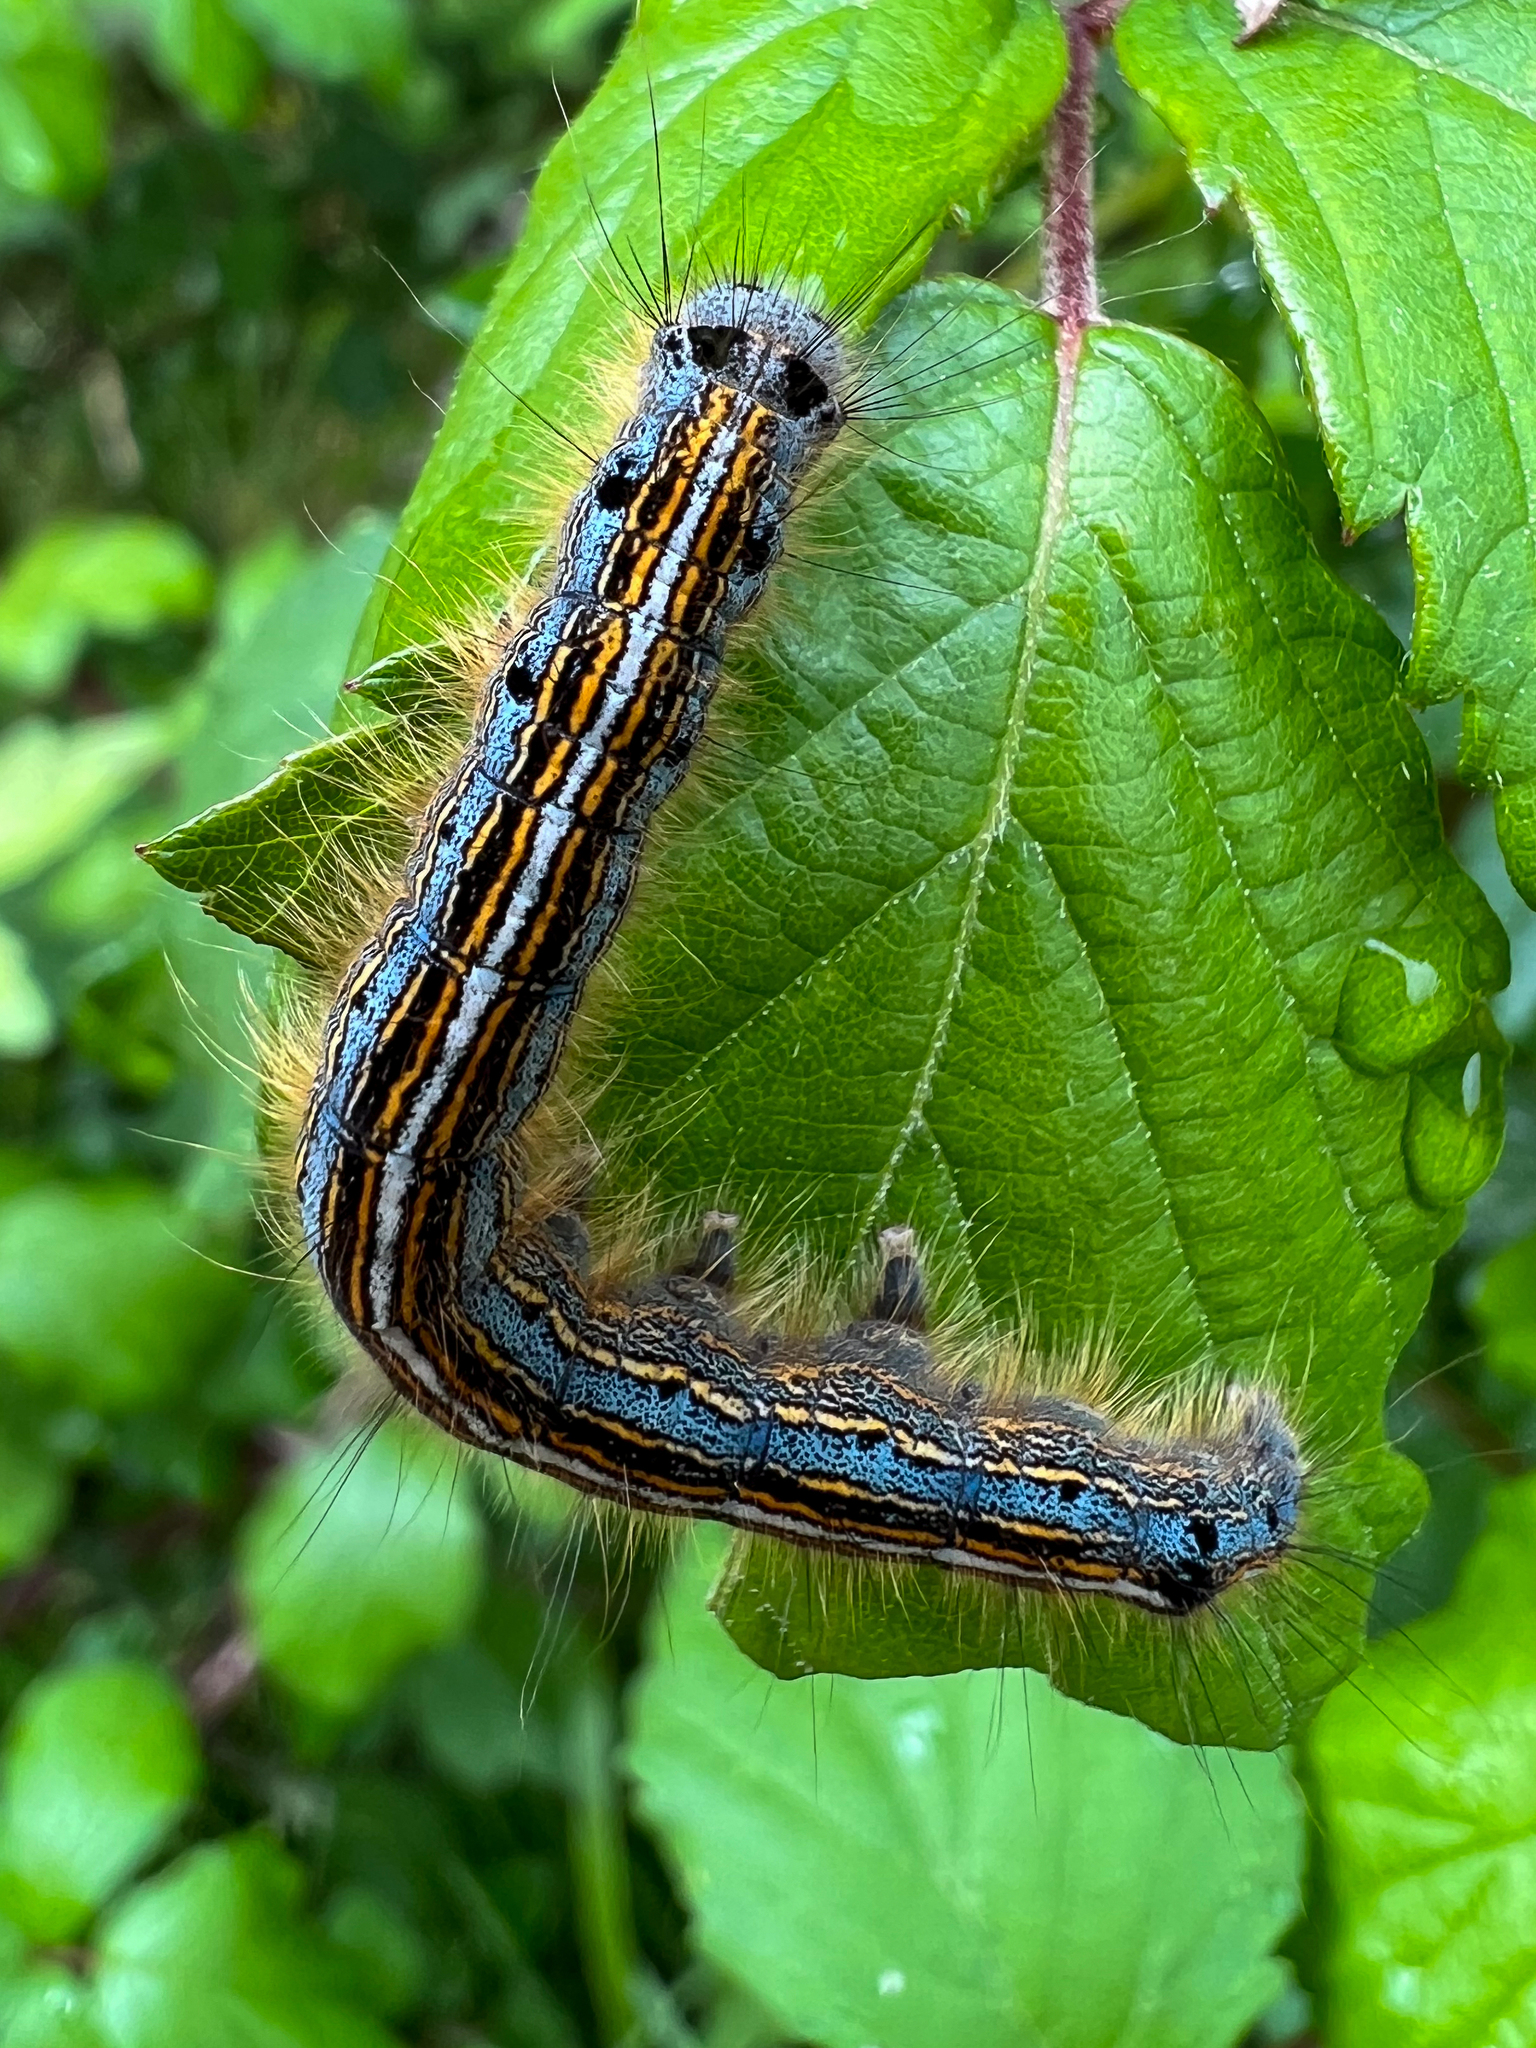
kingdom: Animalia
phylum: Arthropoda
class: Insecta
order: Lepidoptera
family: Lasiocampidae
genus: Malacosoma
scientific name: Malacosoma neustria
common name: The lackey
